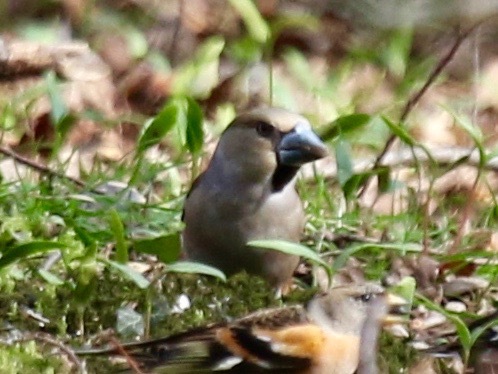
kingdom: Animalia
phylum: Chordata
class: Aves
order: Passeriformes
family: Fringillidae
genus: Coccothraustes
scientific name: Coccothraustes coccothraustes
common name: Hawfinch
